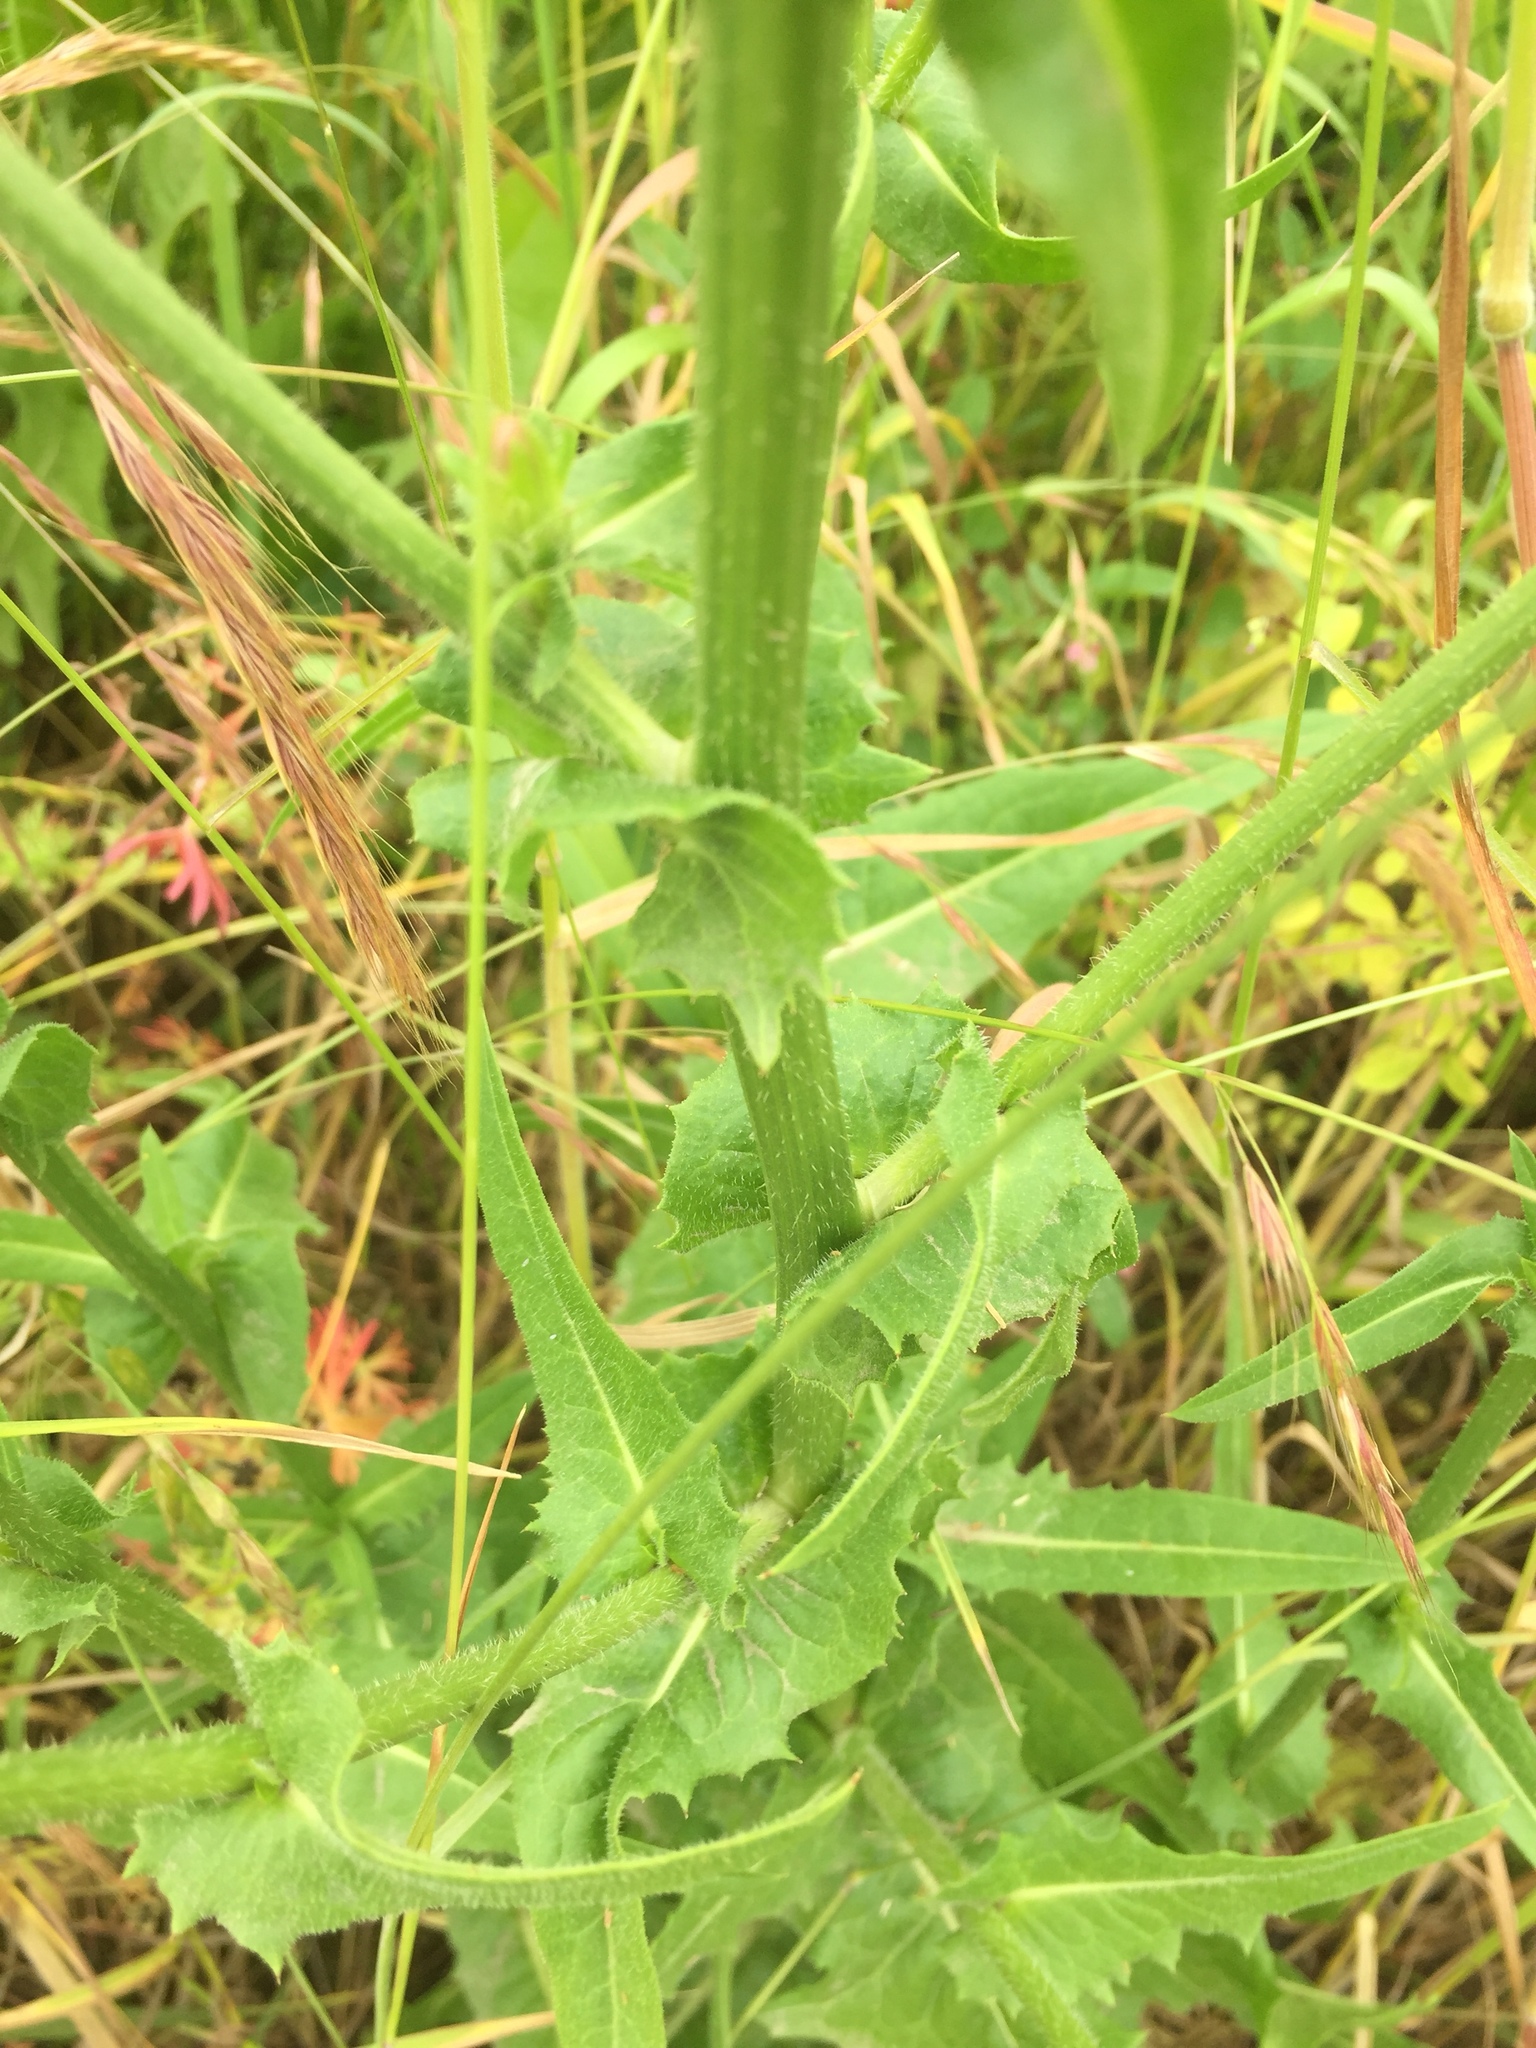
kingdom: Plantae
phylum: Tracheophyta
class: Magnoliopsida
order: Asterales
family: Asteraceae
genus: Cichorium
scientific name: Cichorium intybus
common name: Chicory
